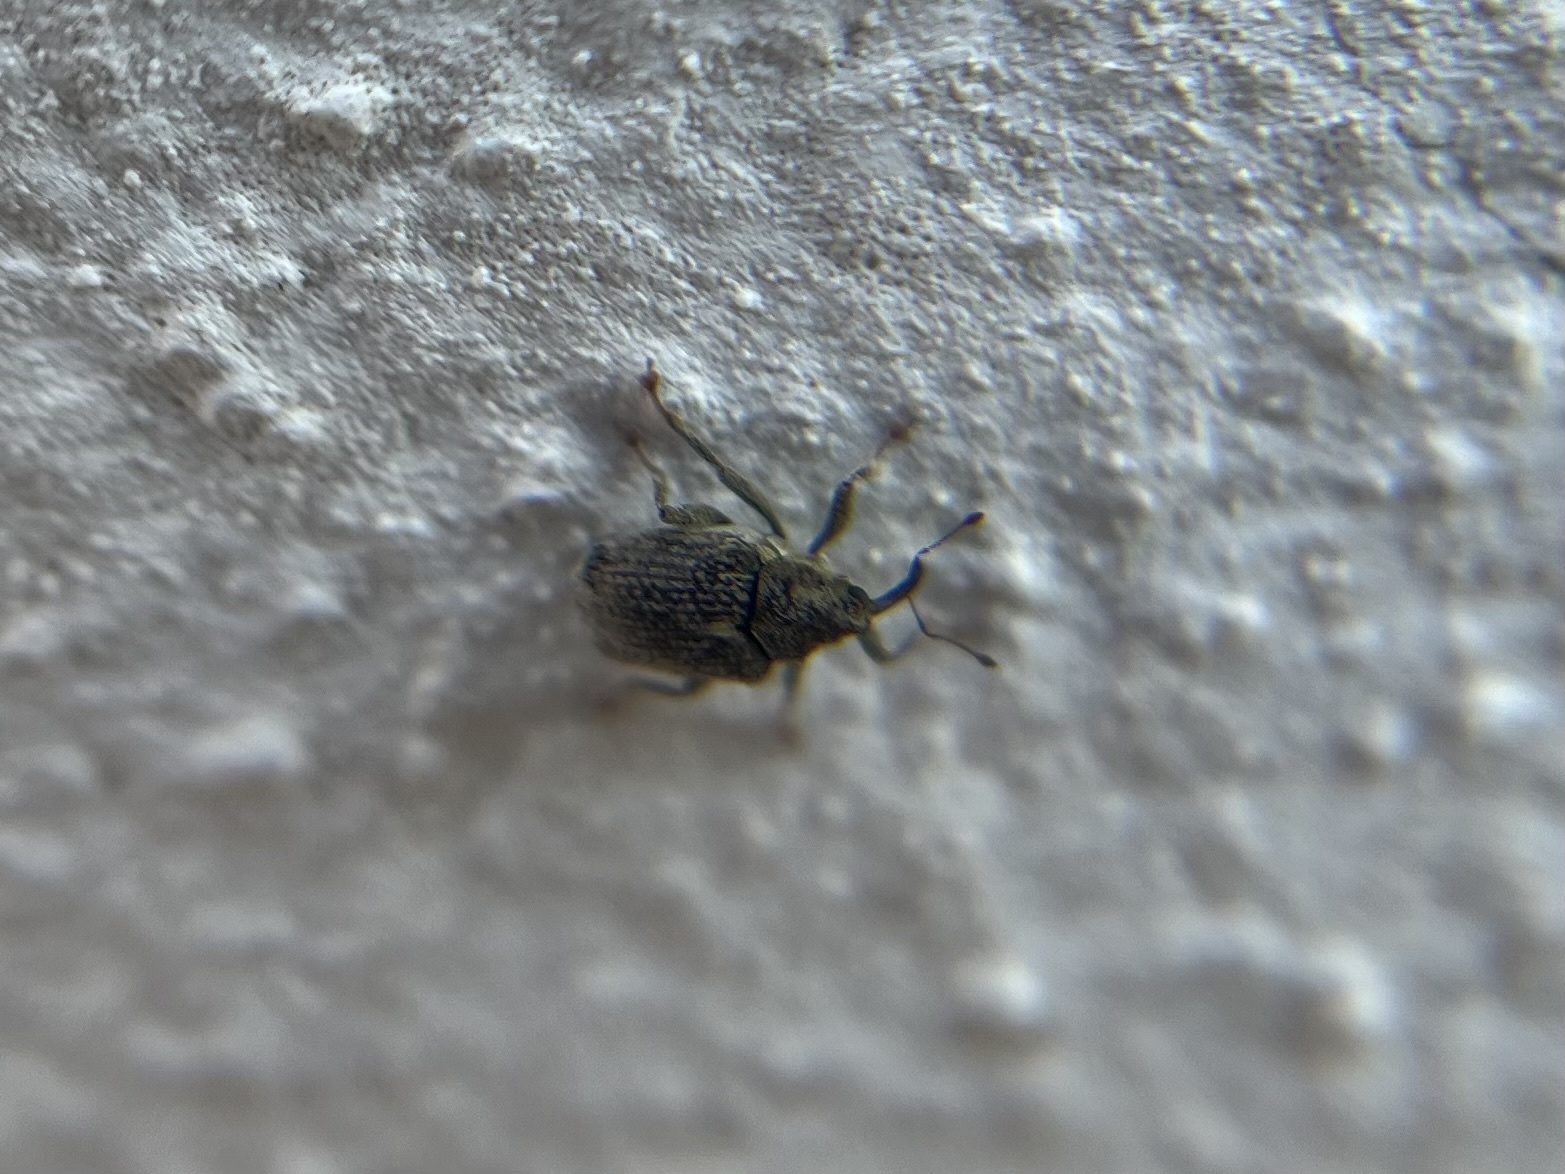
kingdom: Animalia
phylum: Arthropoda
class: Insecta
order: Coleoptera
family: Curculionidae
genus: Ceutorhynchus
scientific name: Ceutorhynchus pallidactylus
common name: Cabbage stem weavil
